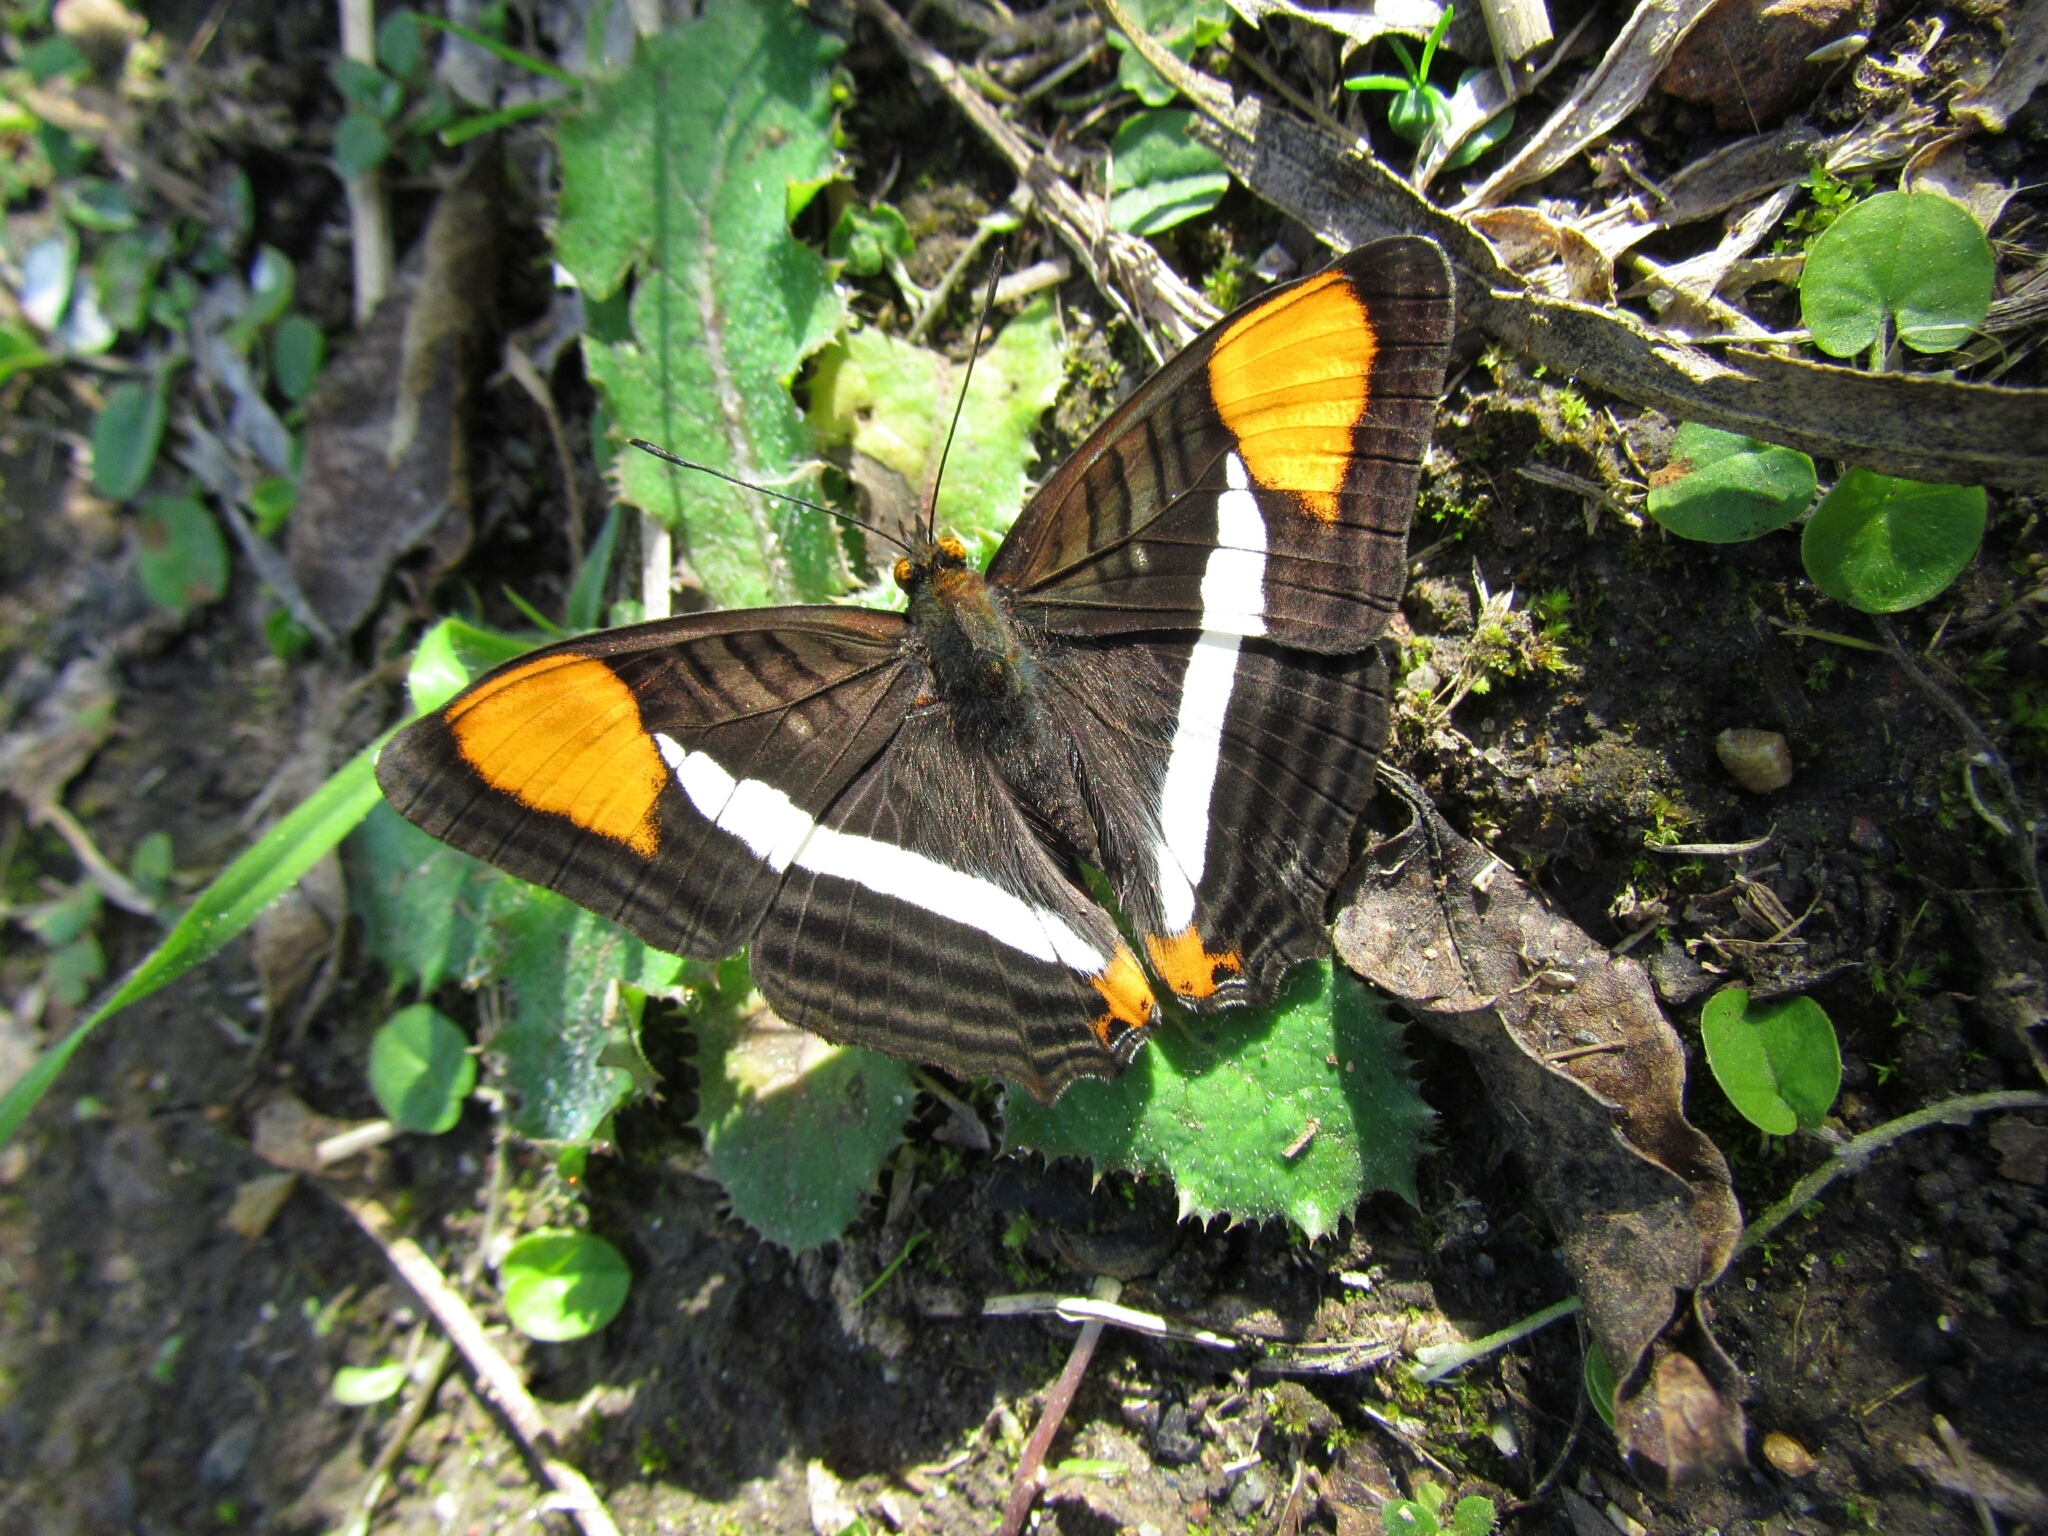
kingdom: Animalia
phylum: Arthropoda
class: Insecta
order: Lepidoptera
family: Nymphalidae
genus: Limenitis
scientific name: Limenitis syma
